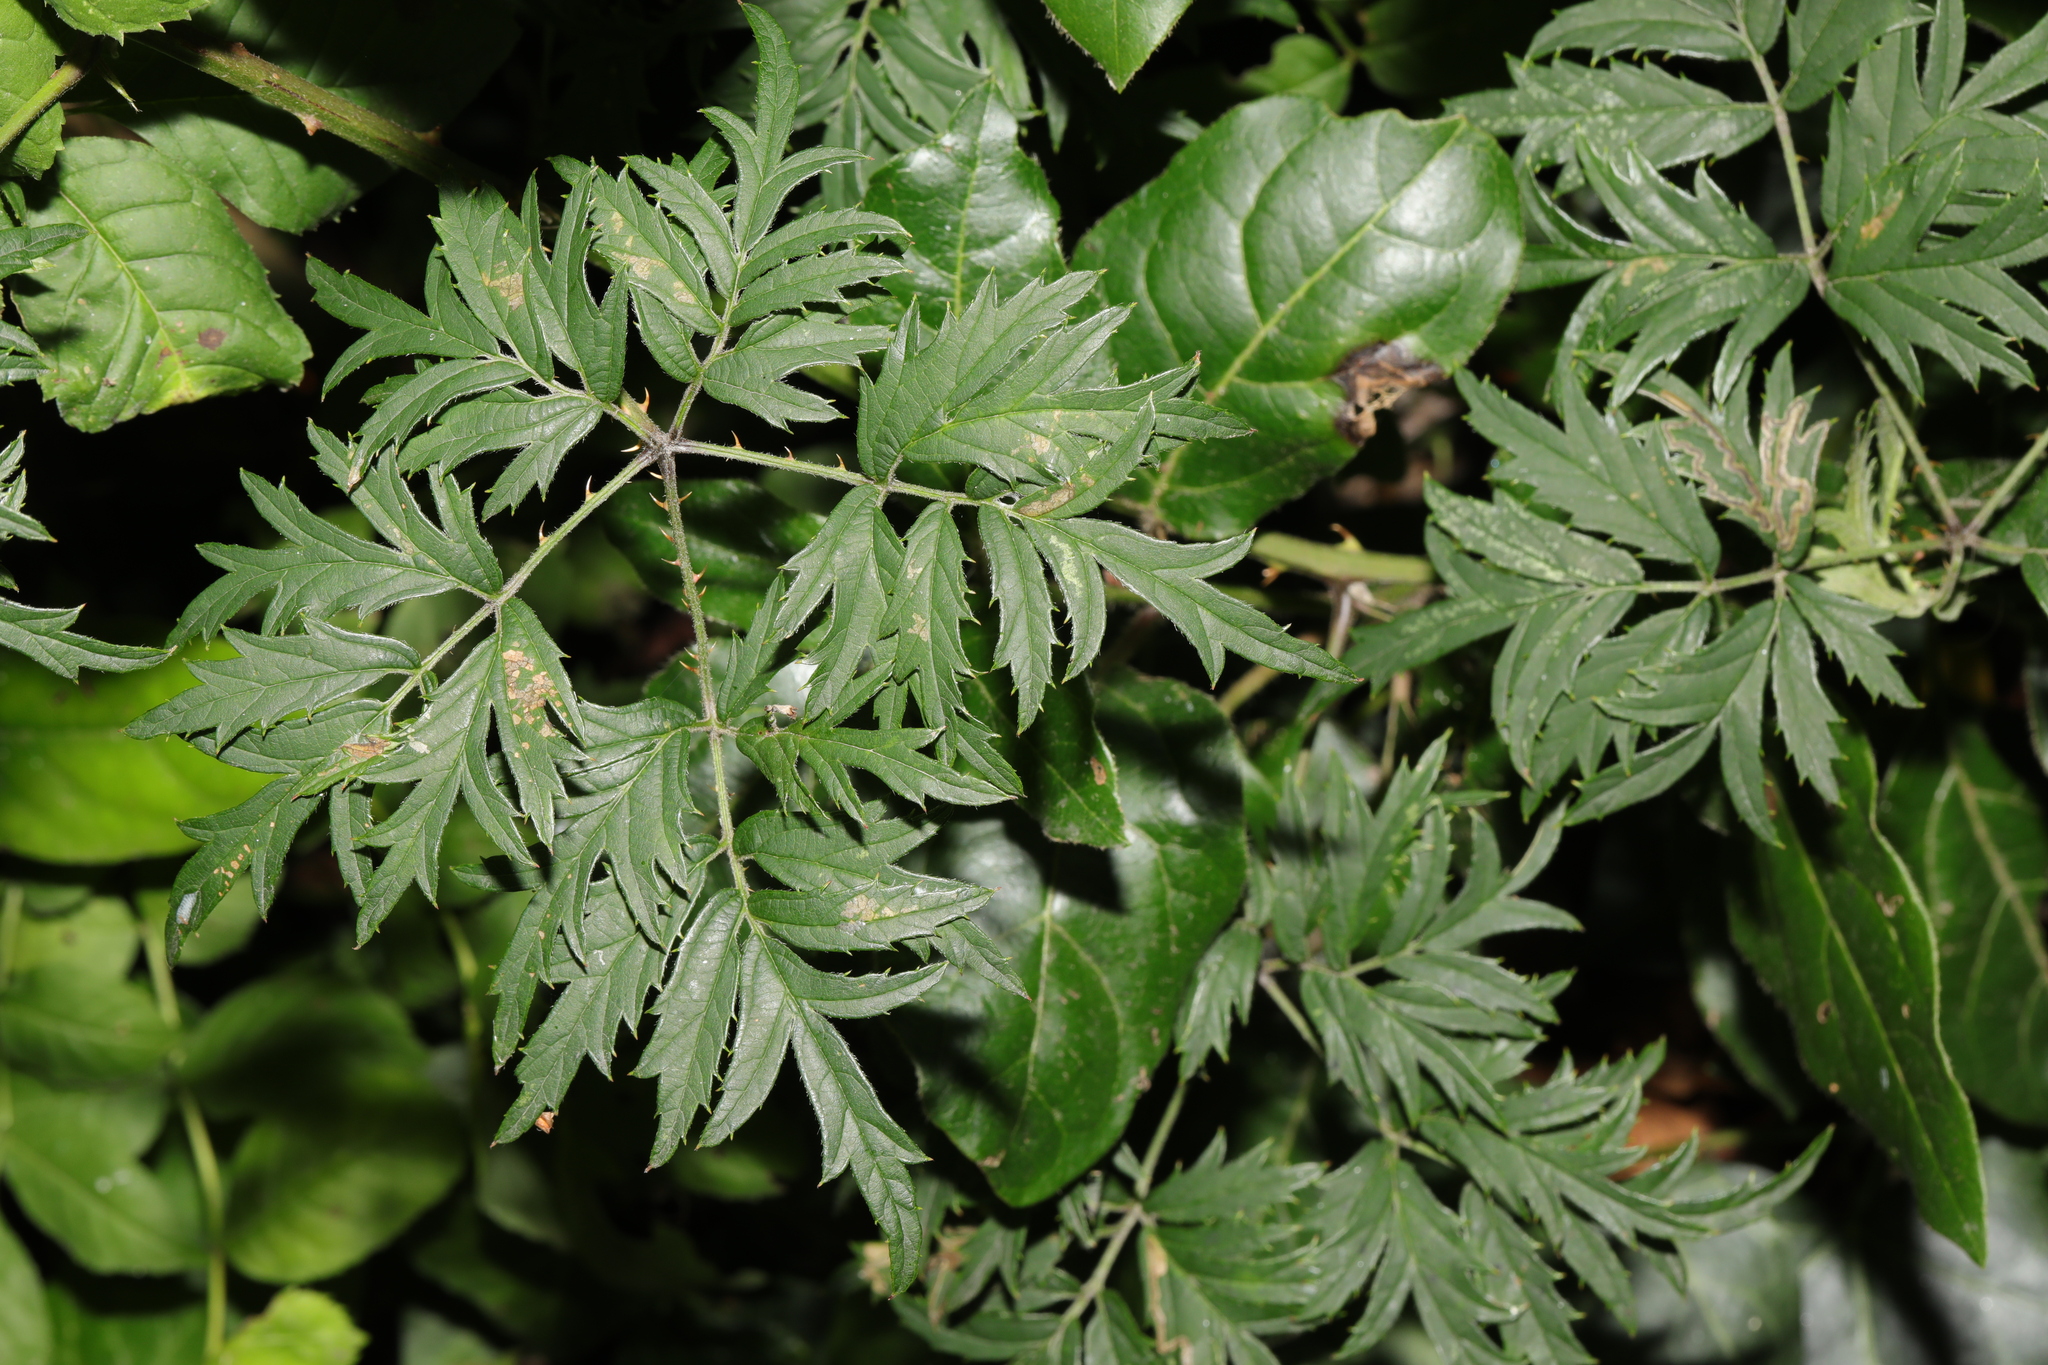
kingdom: Plantae
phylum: Tracheophyta
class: Magnoliopsida
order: Rosales
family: Rosaceae
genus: Rubus
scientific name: Rubus laciniatus
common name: Evergreen blackberry
